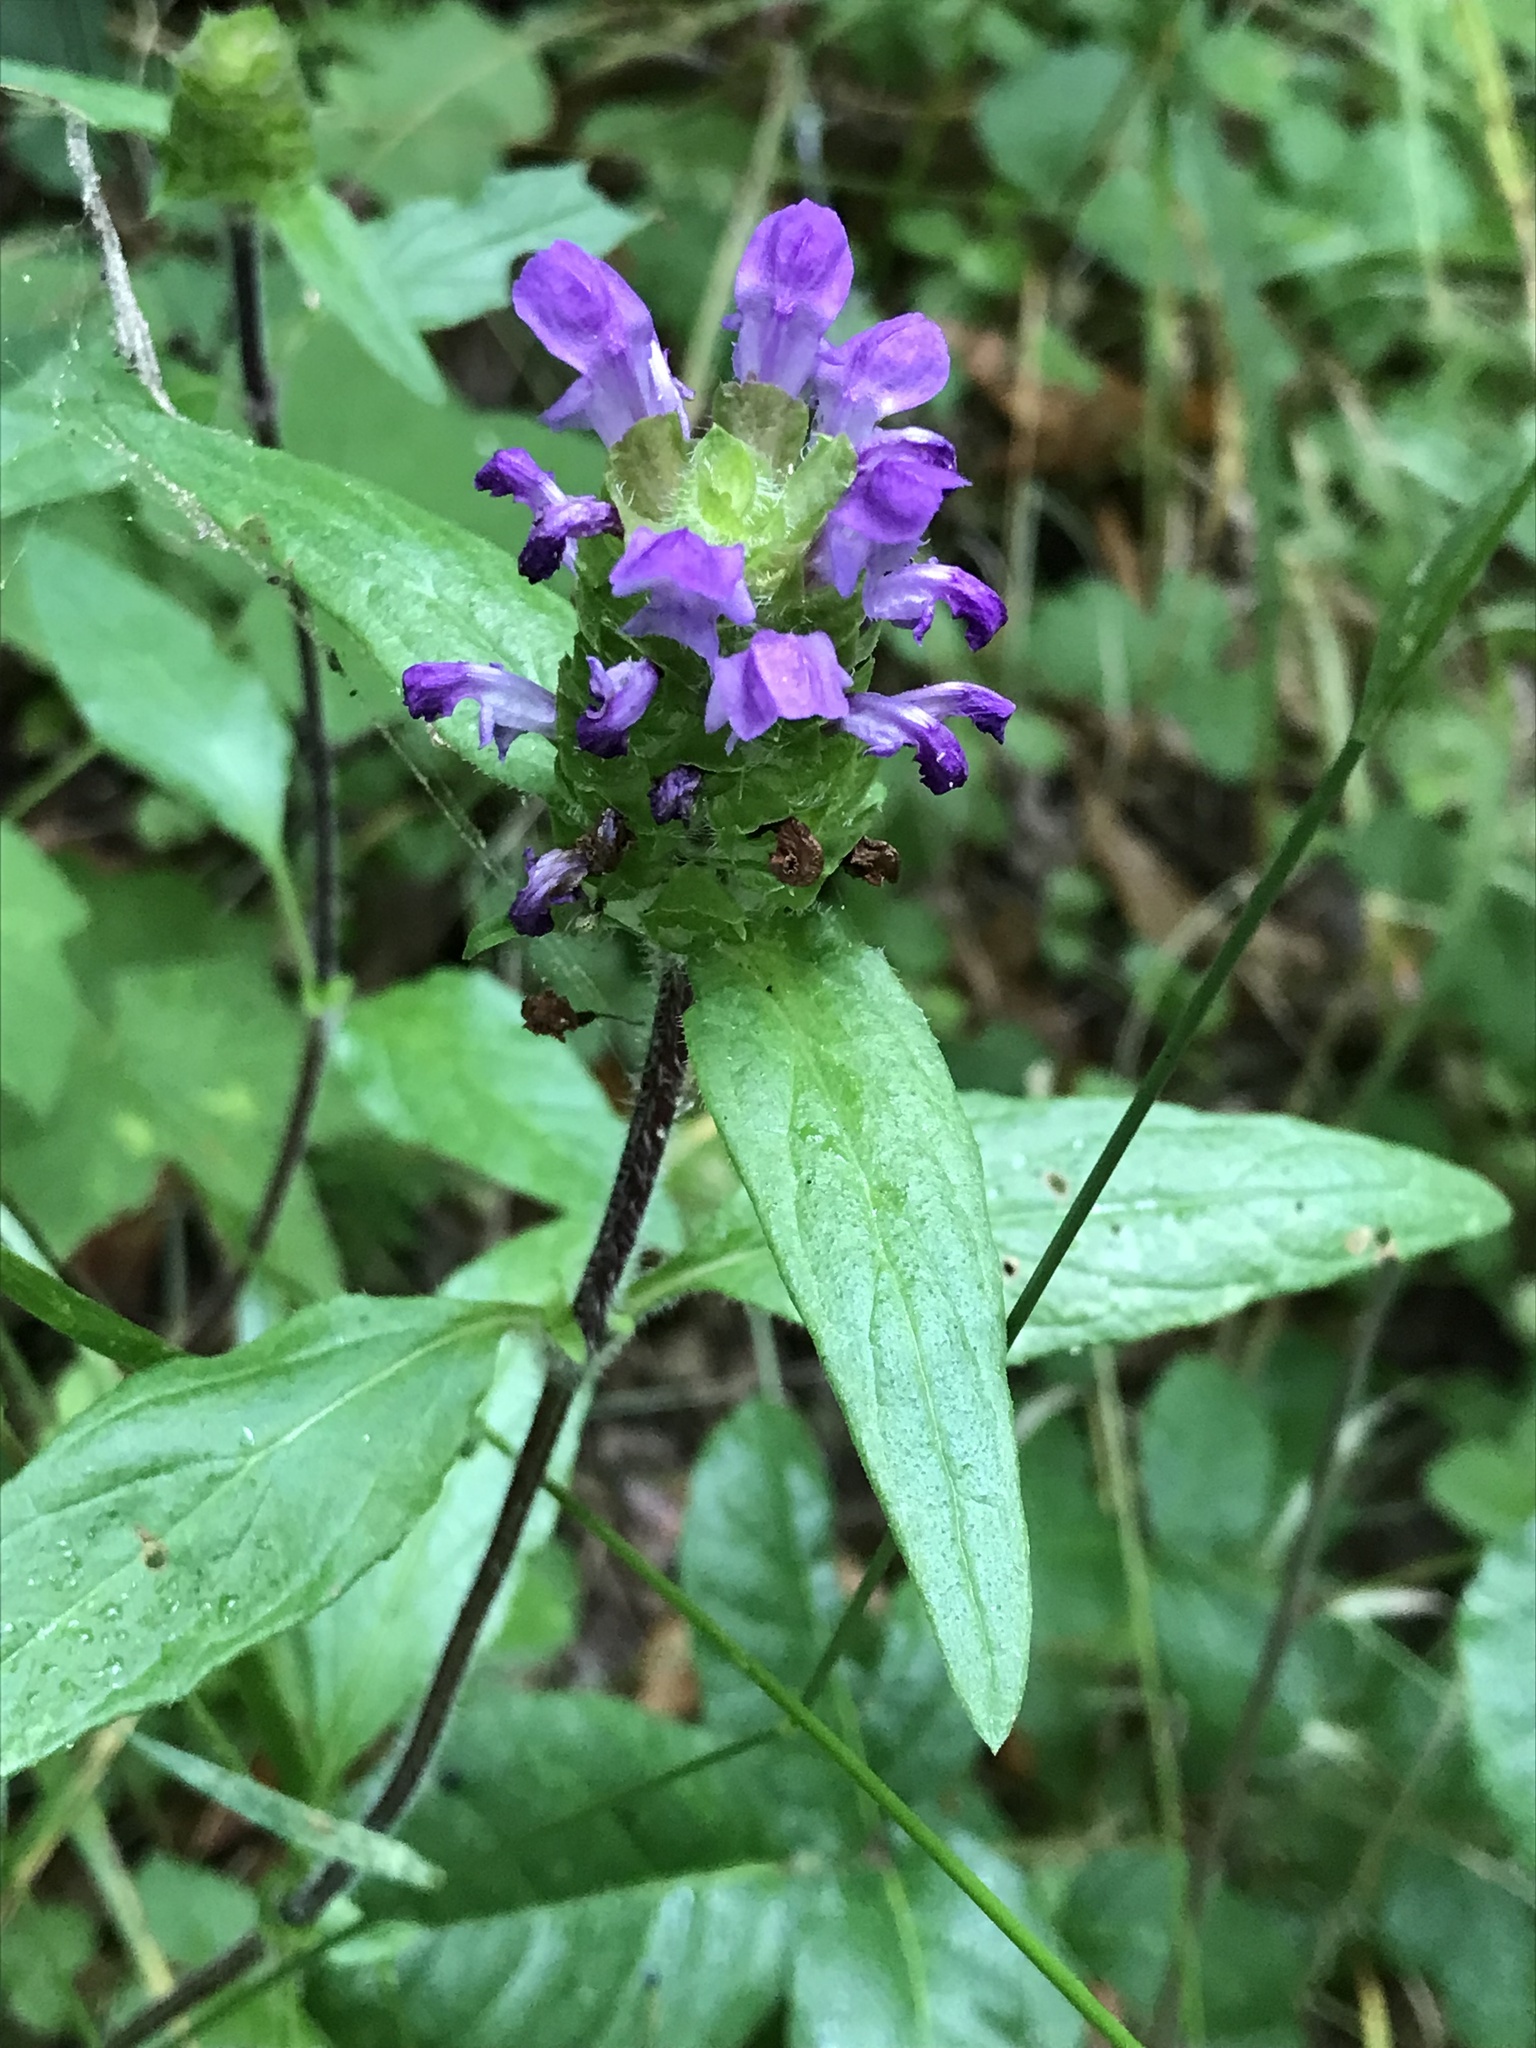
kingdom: Plantae
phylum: Tracheophyta
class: Magnoliopsida
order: Lamiales
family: Lamiaceae
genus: Prunella
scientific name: Prunella vulgaris
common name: Heal-all
